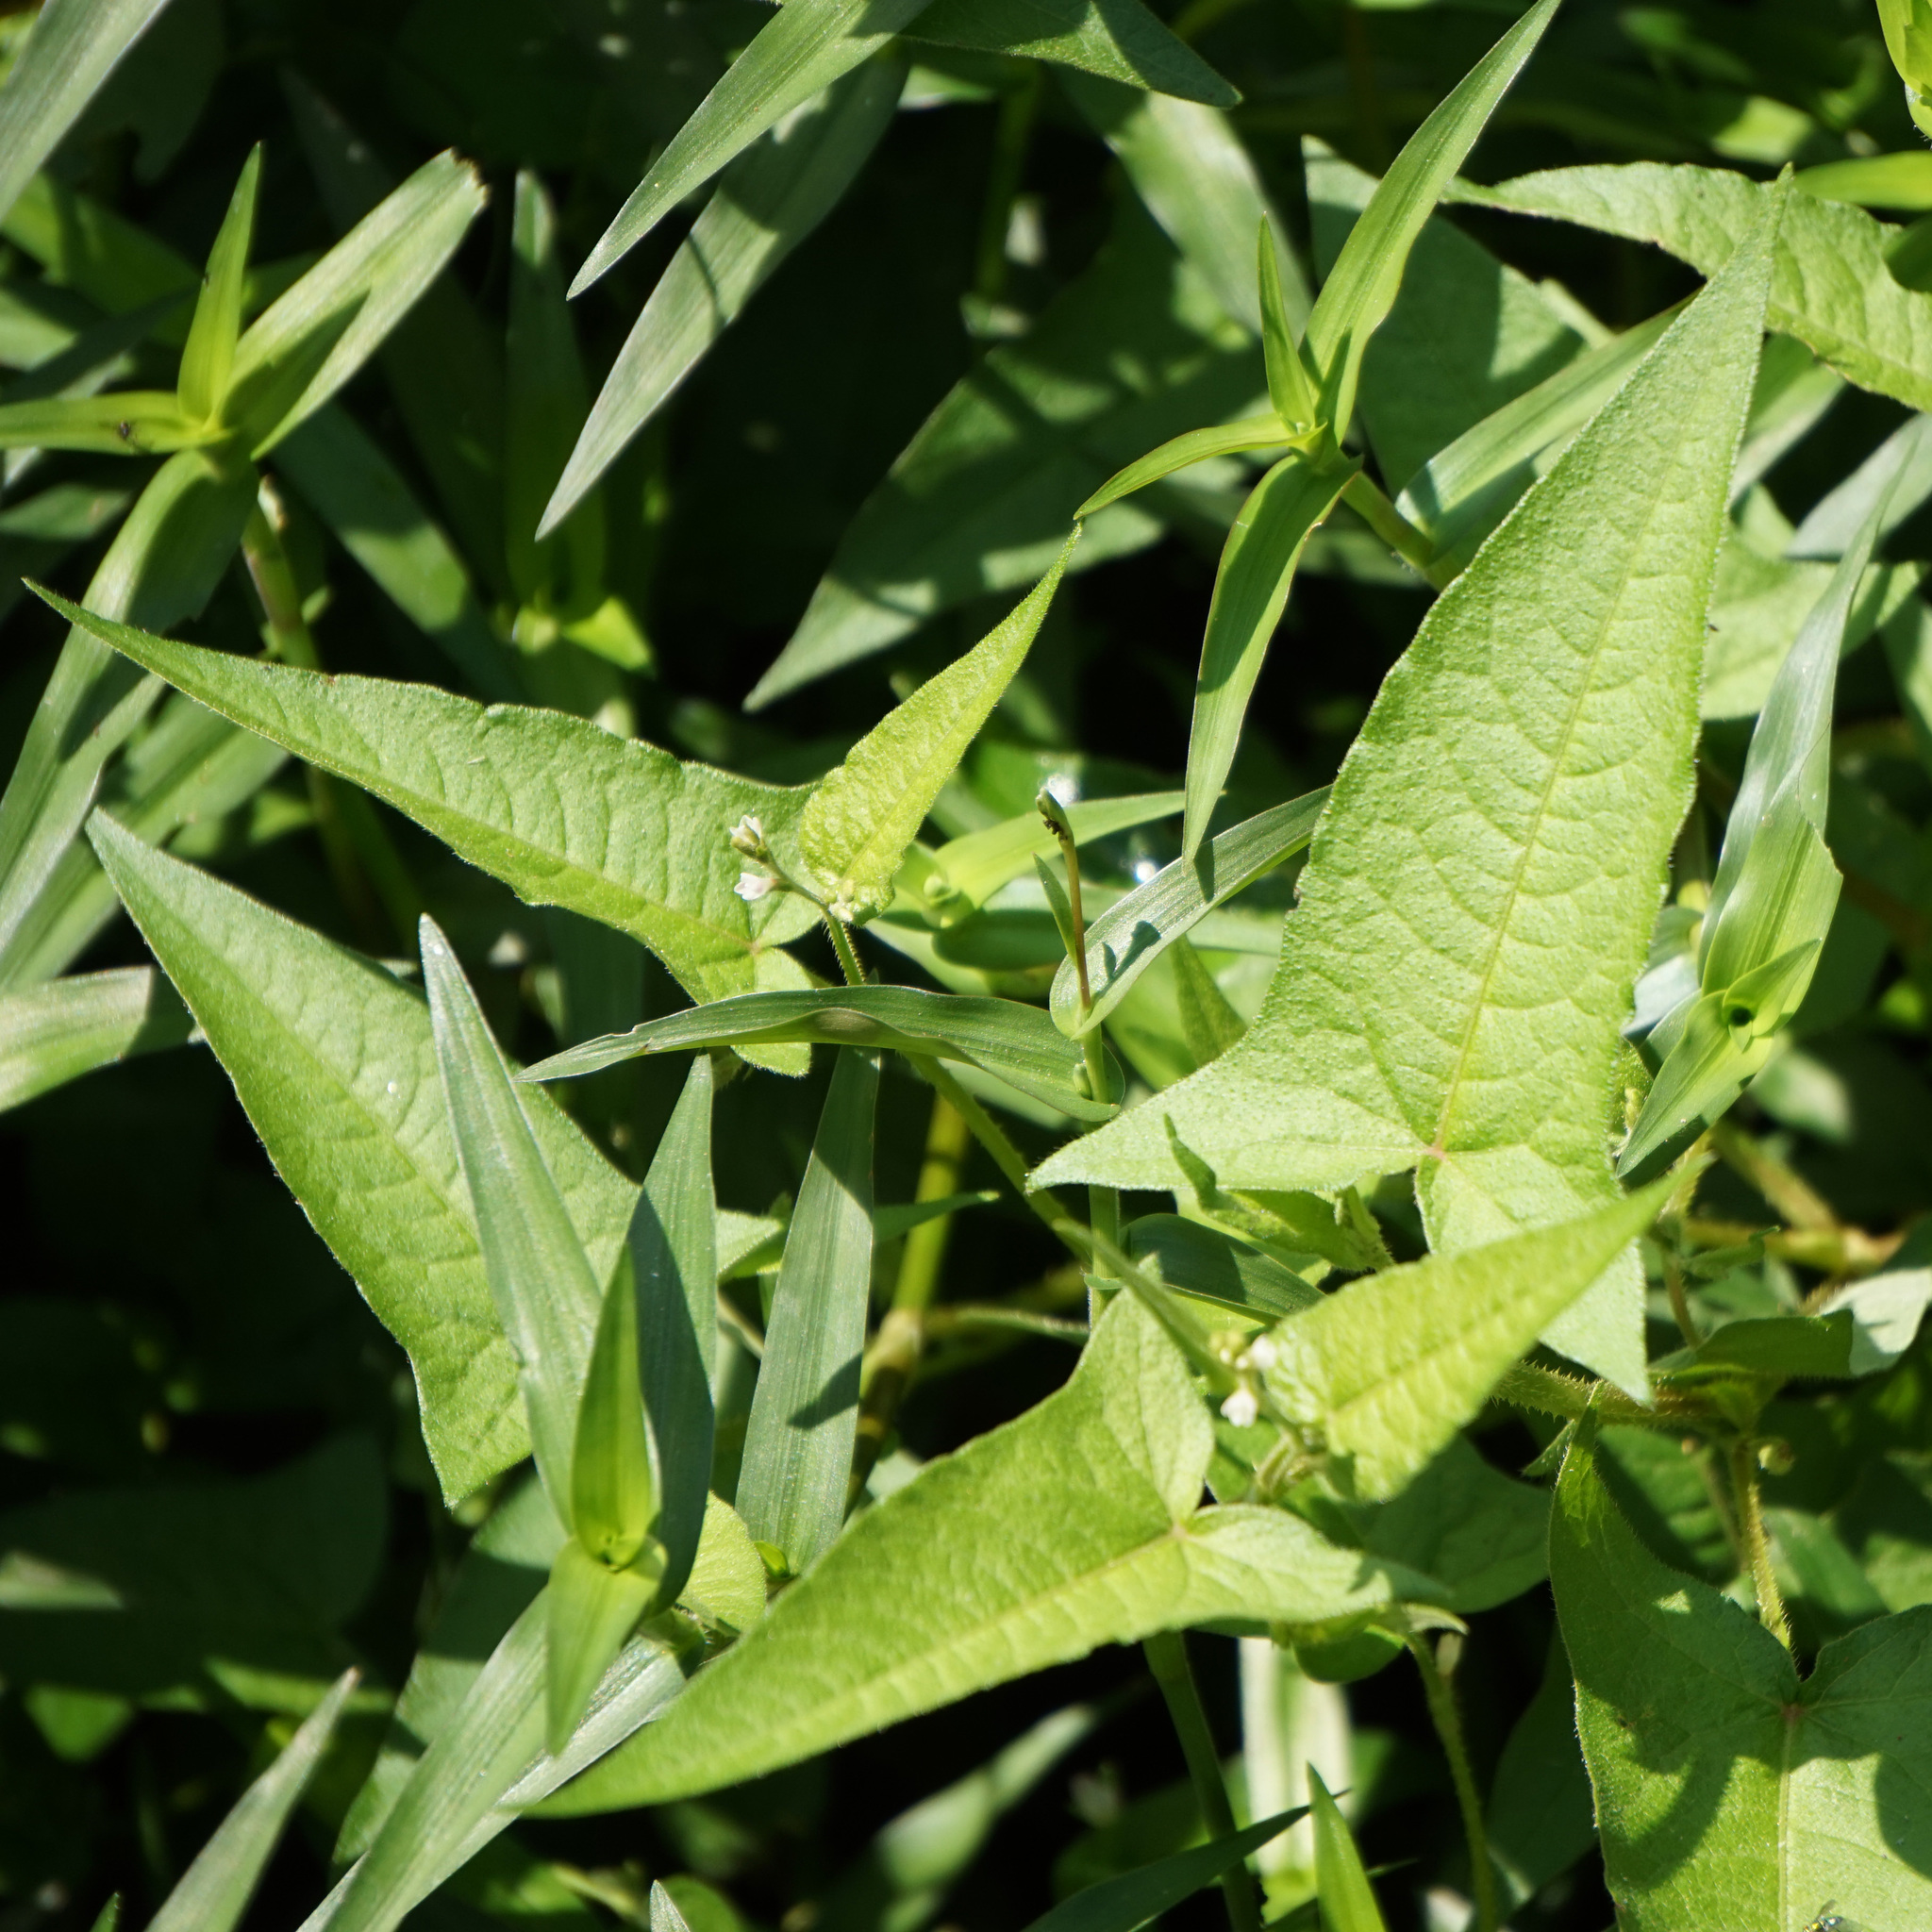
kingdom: Plantae
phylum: Tracheophyta
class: Magnoliopsida
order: Caryophyllales
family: Polygonaceae
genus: Persicaria
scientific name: Persicaria arifolia
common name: Halberd-leaved tear-thumb
